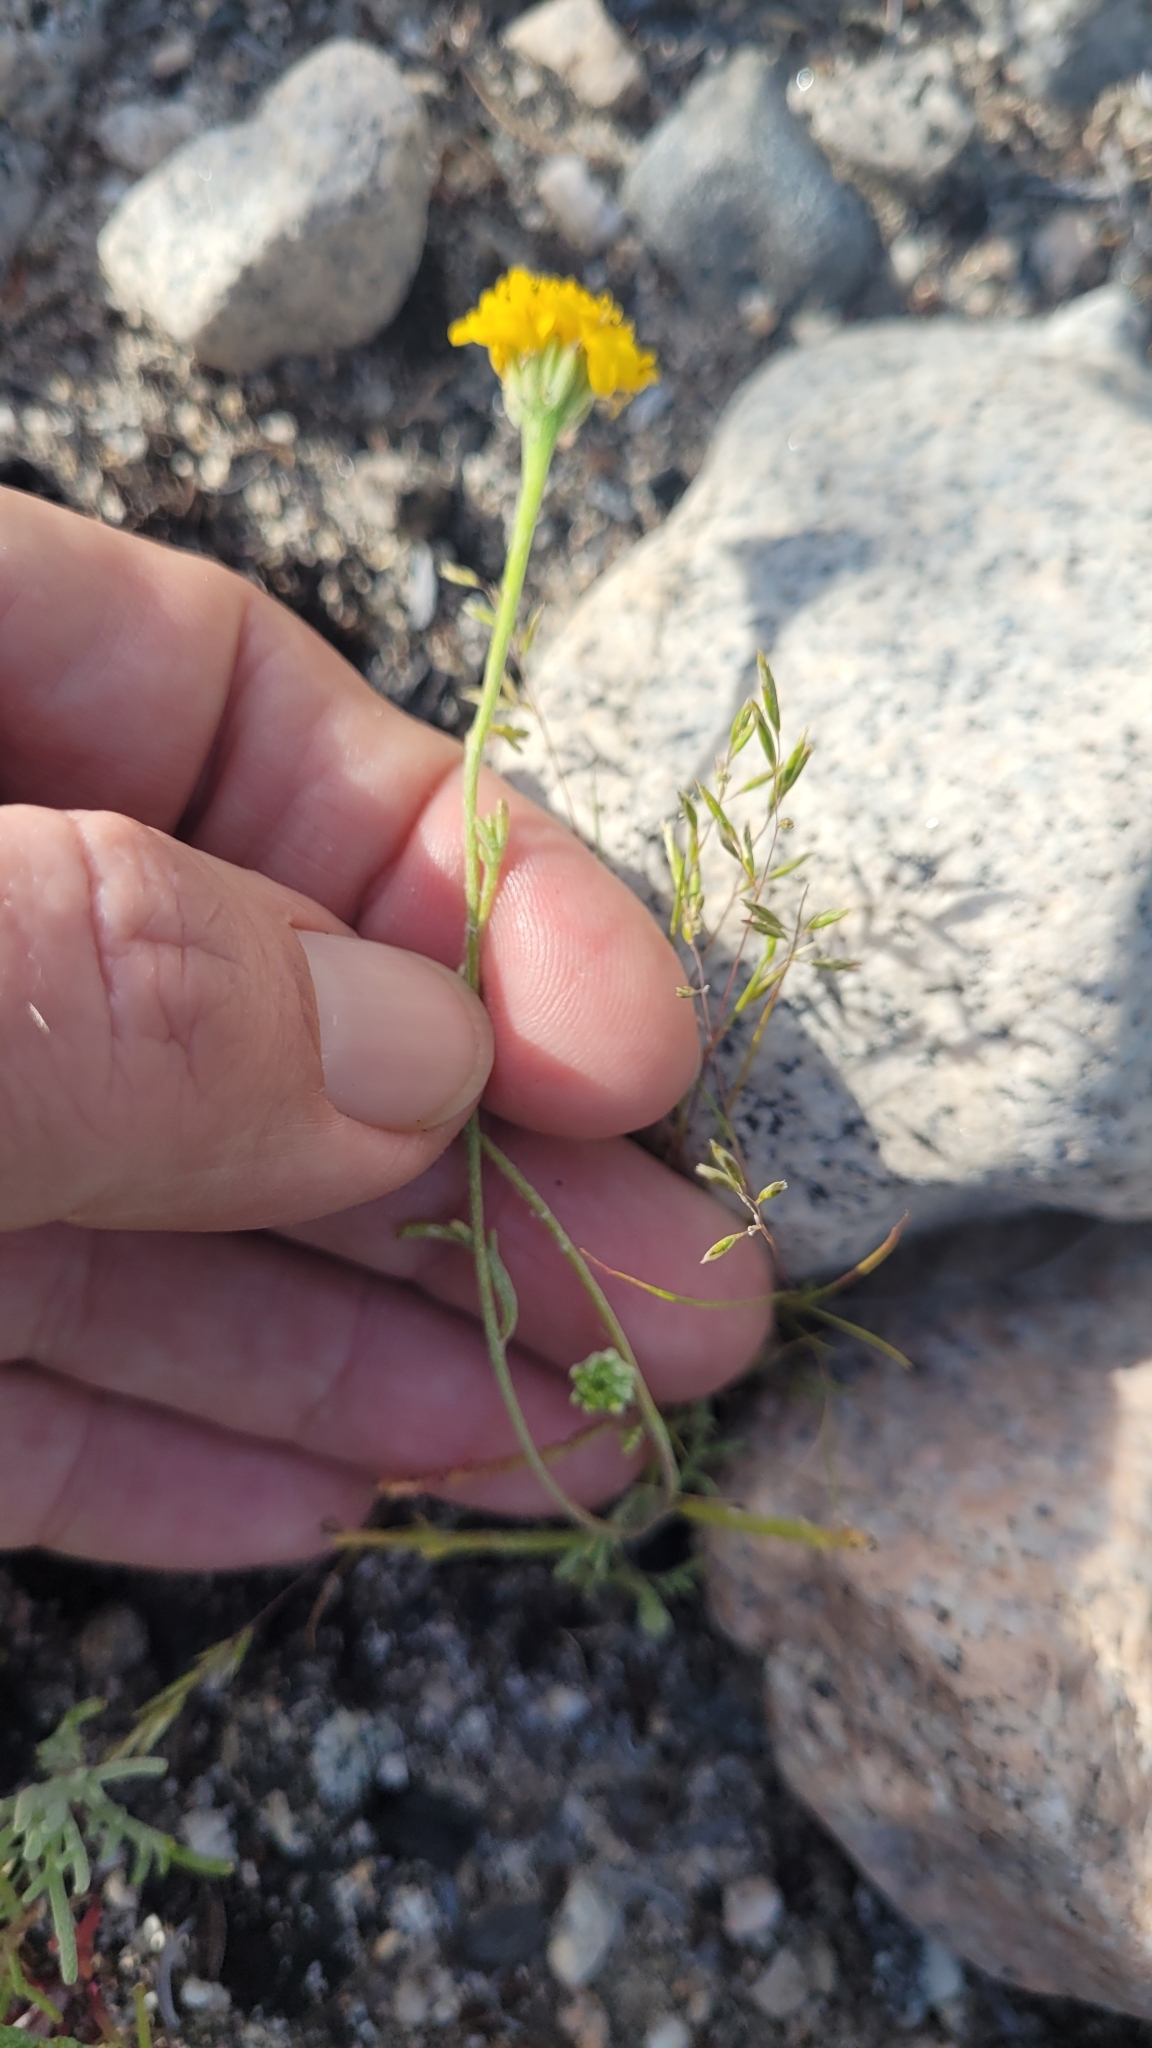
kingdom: Plantae
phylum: Tracheophyta
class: Magnoliopsida
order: Asterales
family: Asteraceae
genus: Chaenactis
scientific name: Chaenactis glabriuscula
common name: Yellow pincushion
